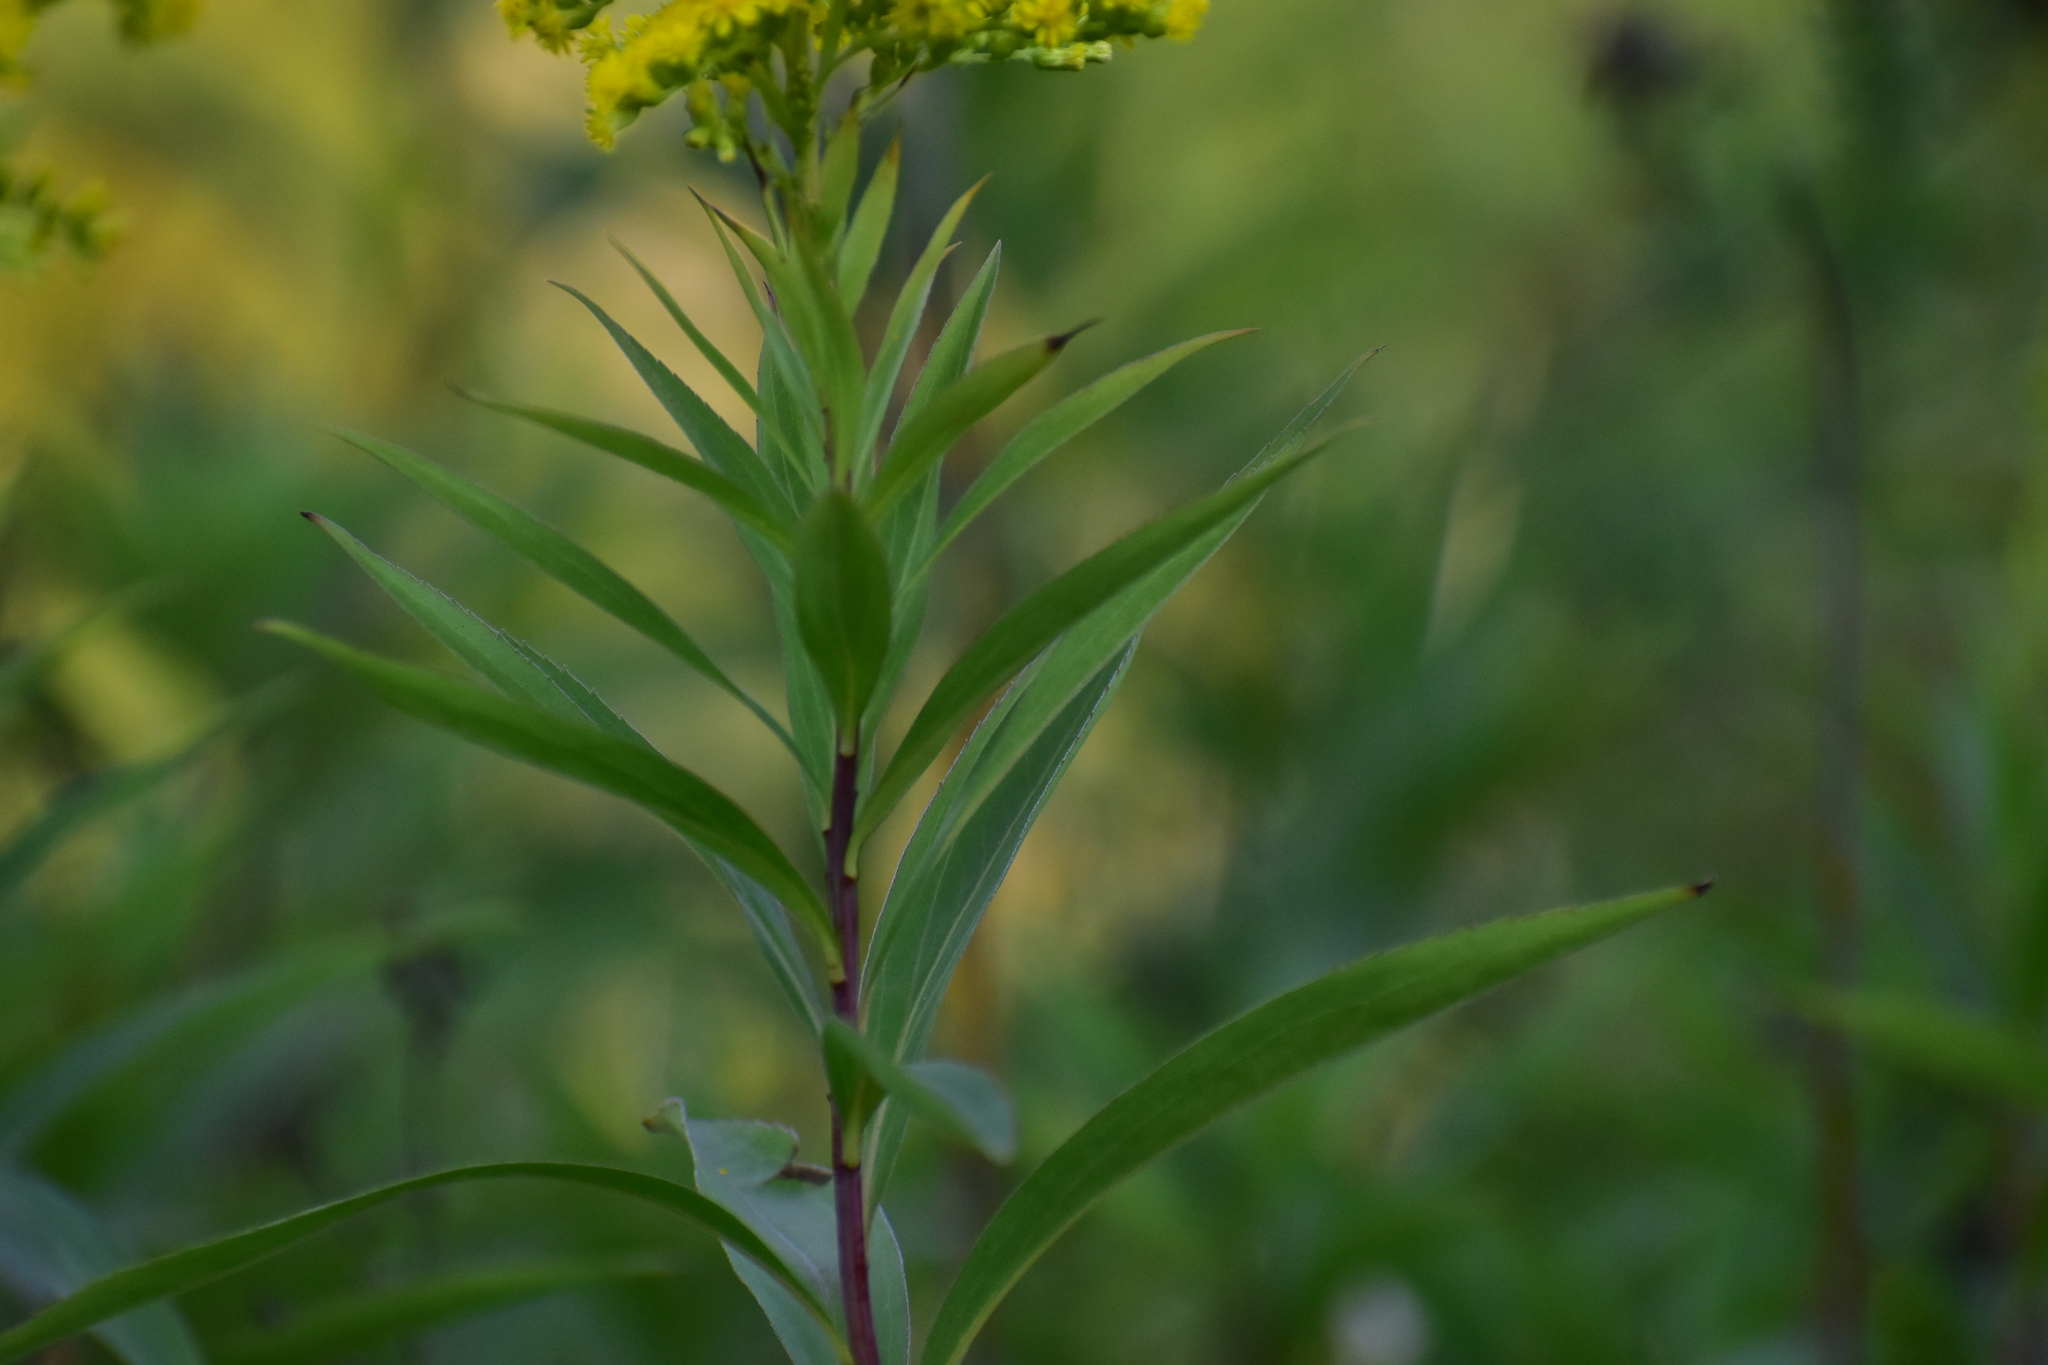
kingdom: Plantae
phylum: Tracheophyta
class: Magnoliopsida
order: Asterales
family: Asteraceae
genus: Solidago
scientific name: Solidago gigantea
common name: Giant goldenrod
